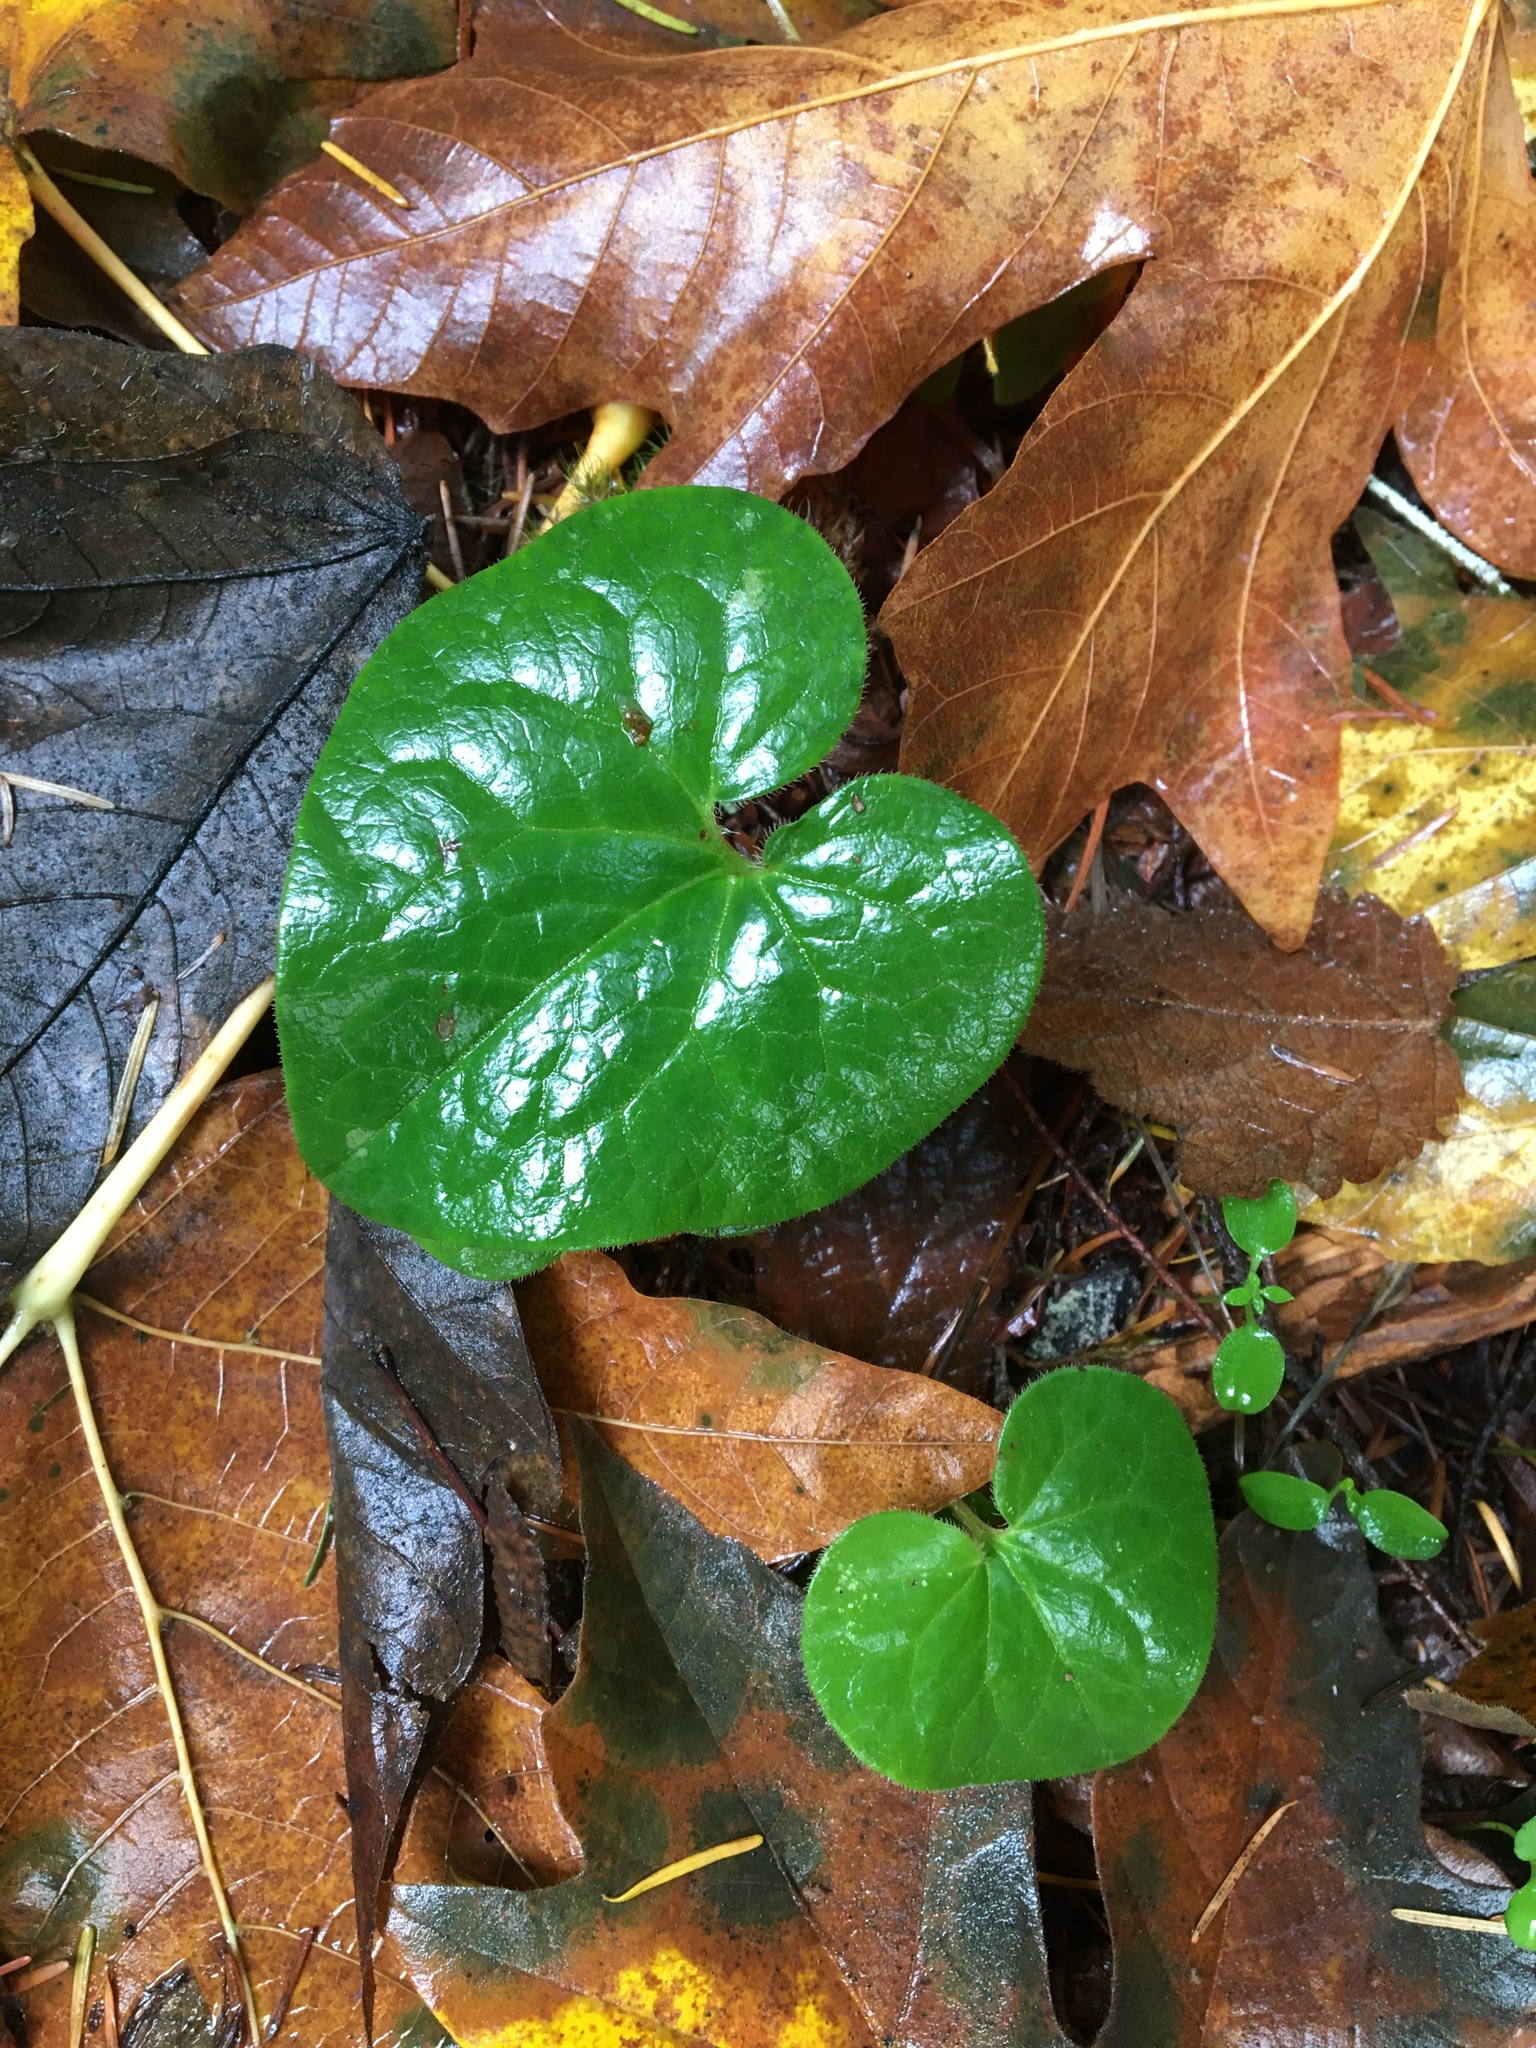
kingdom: Plantae
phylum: Tracheophyta
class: Magnoliopsida
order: Piperales
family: Aristolochiaceae
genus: Asarum
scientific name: Asarum caudatum
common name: Wild ginger
